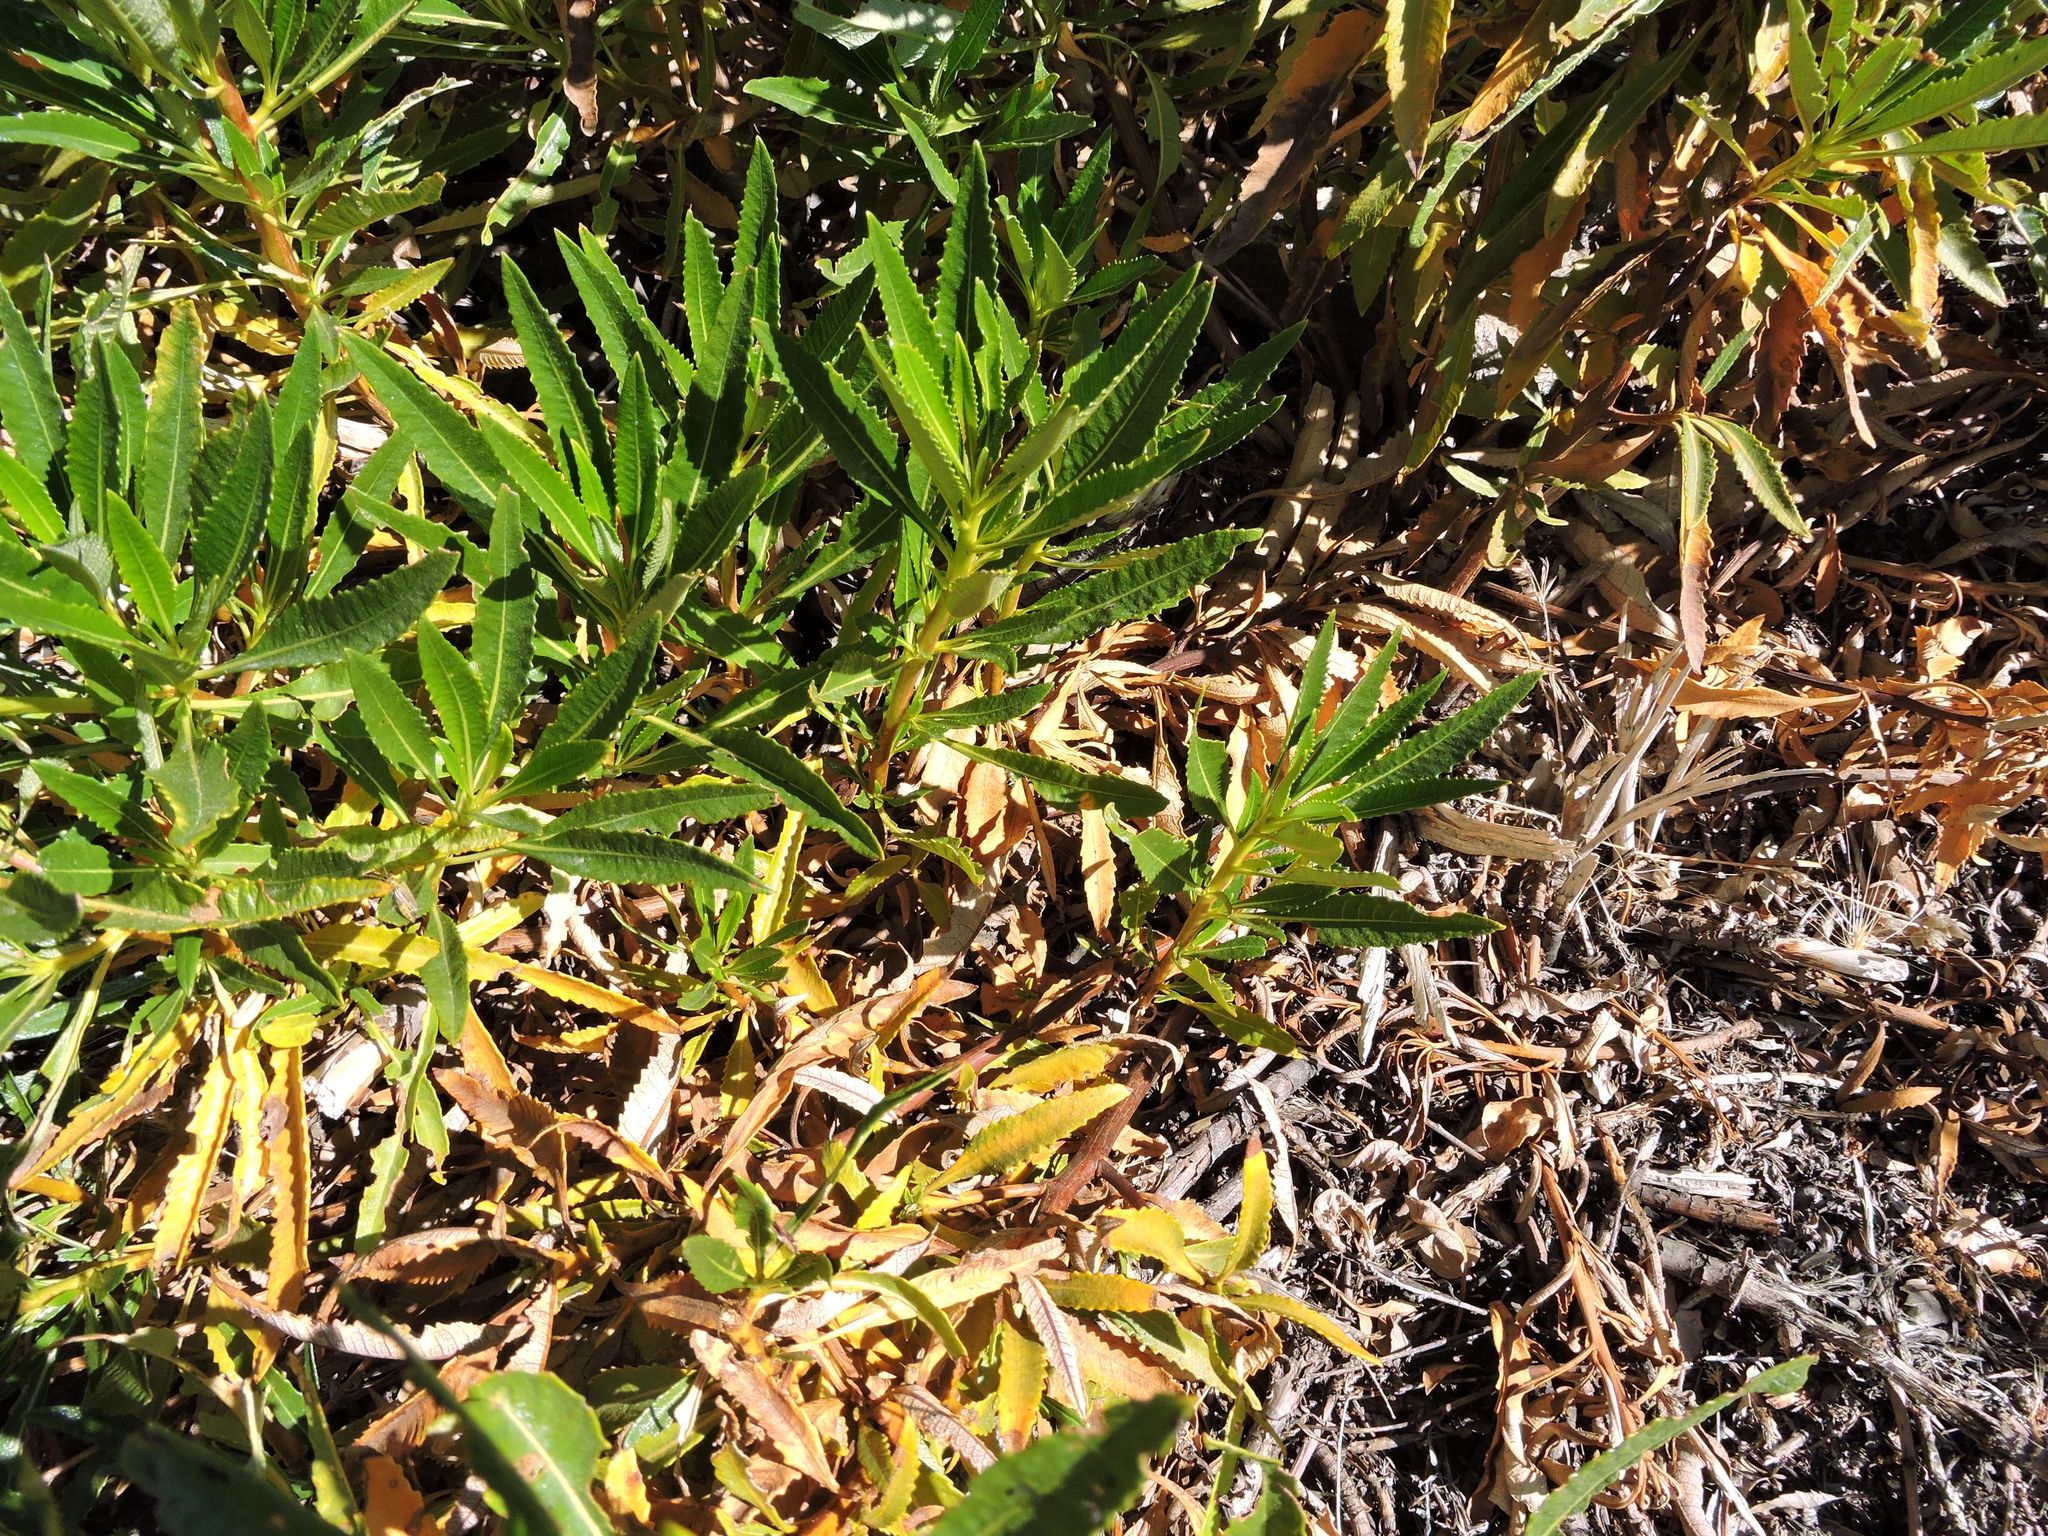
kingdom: Plantae
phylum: Tracheophyta
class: Magnoliopsida
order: Boraginales
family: Namaceae
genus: Eriodictyon
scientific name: Eriodictyon trichocalyx
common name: Hairy yerba-santa
